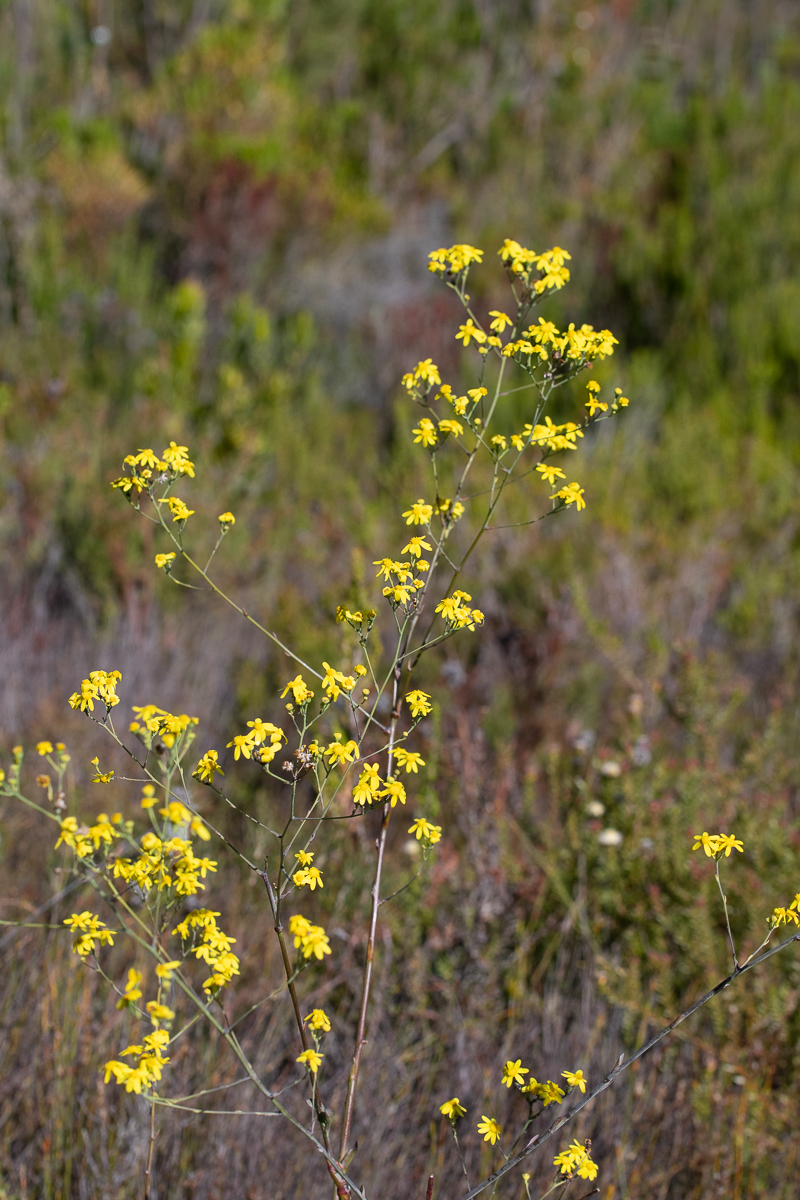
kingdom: Plantae
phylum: Tracheophyta
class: Magnoliopsida
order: Asterales
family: Asteraceae
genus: Othonna
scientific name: Othonna quinquedentata
